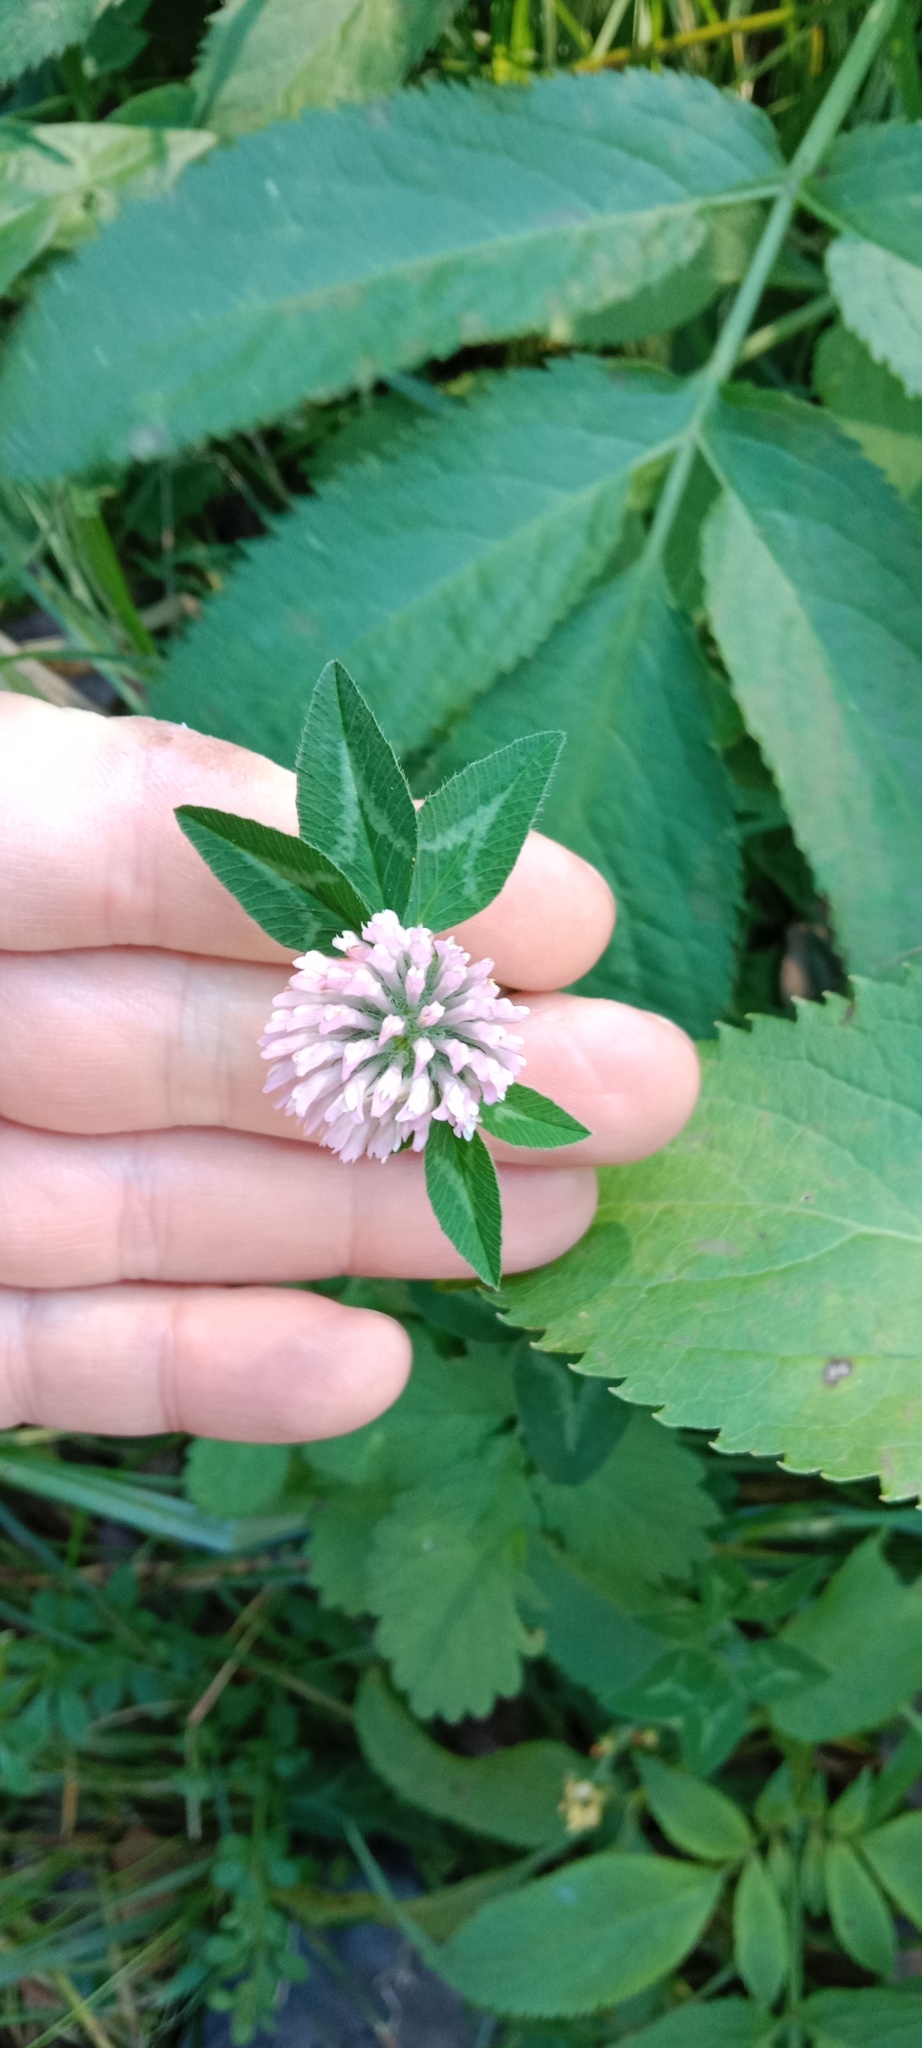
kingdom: Plantae
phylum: Tracheophyta
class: Magnoliopsida
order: Fabales
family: Fabaceae
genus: Trifolium
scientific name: Trifolium pratense
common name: Red clover
